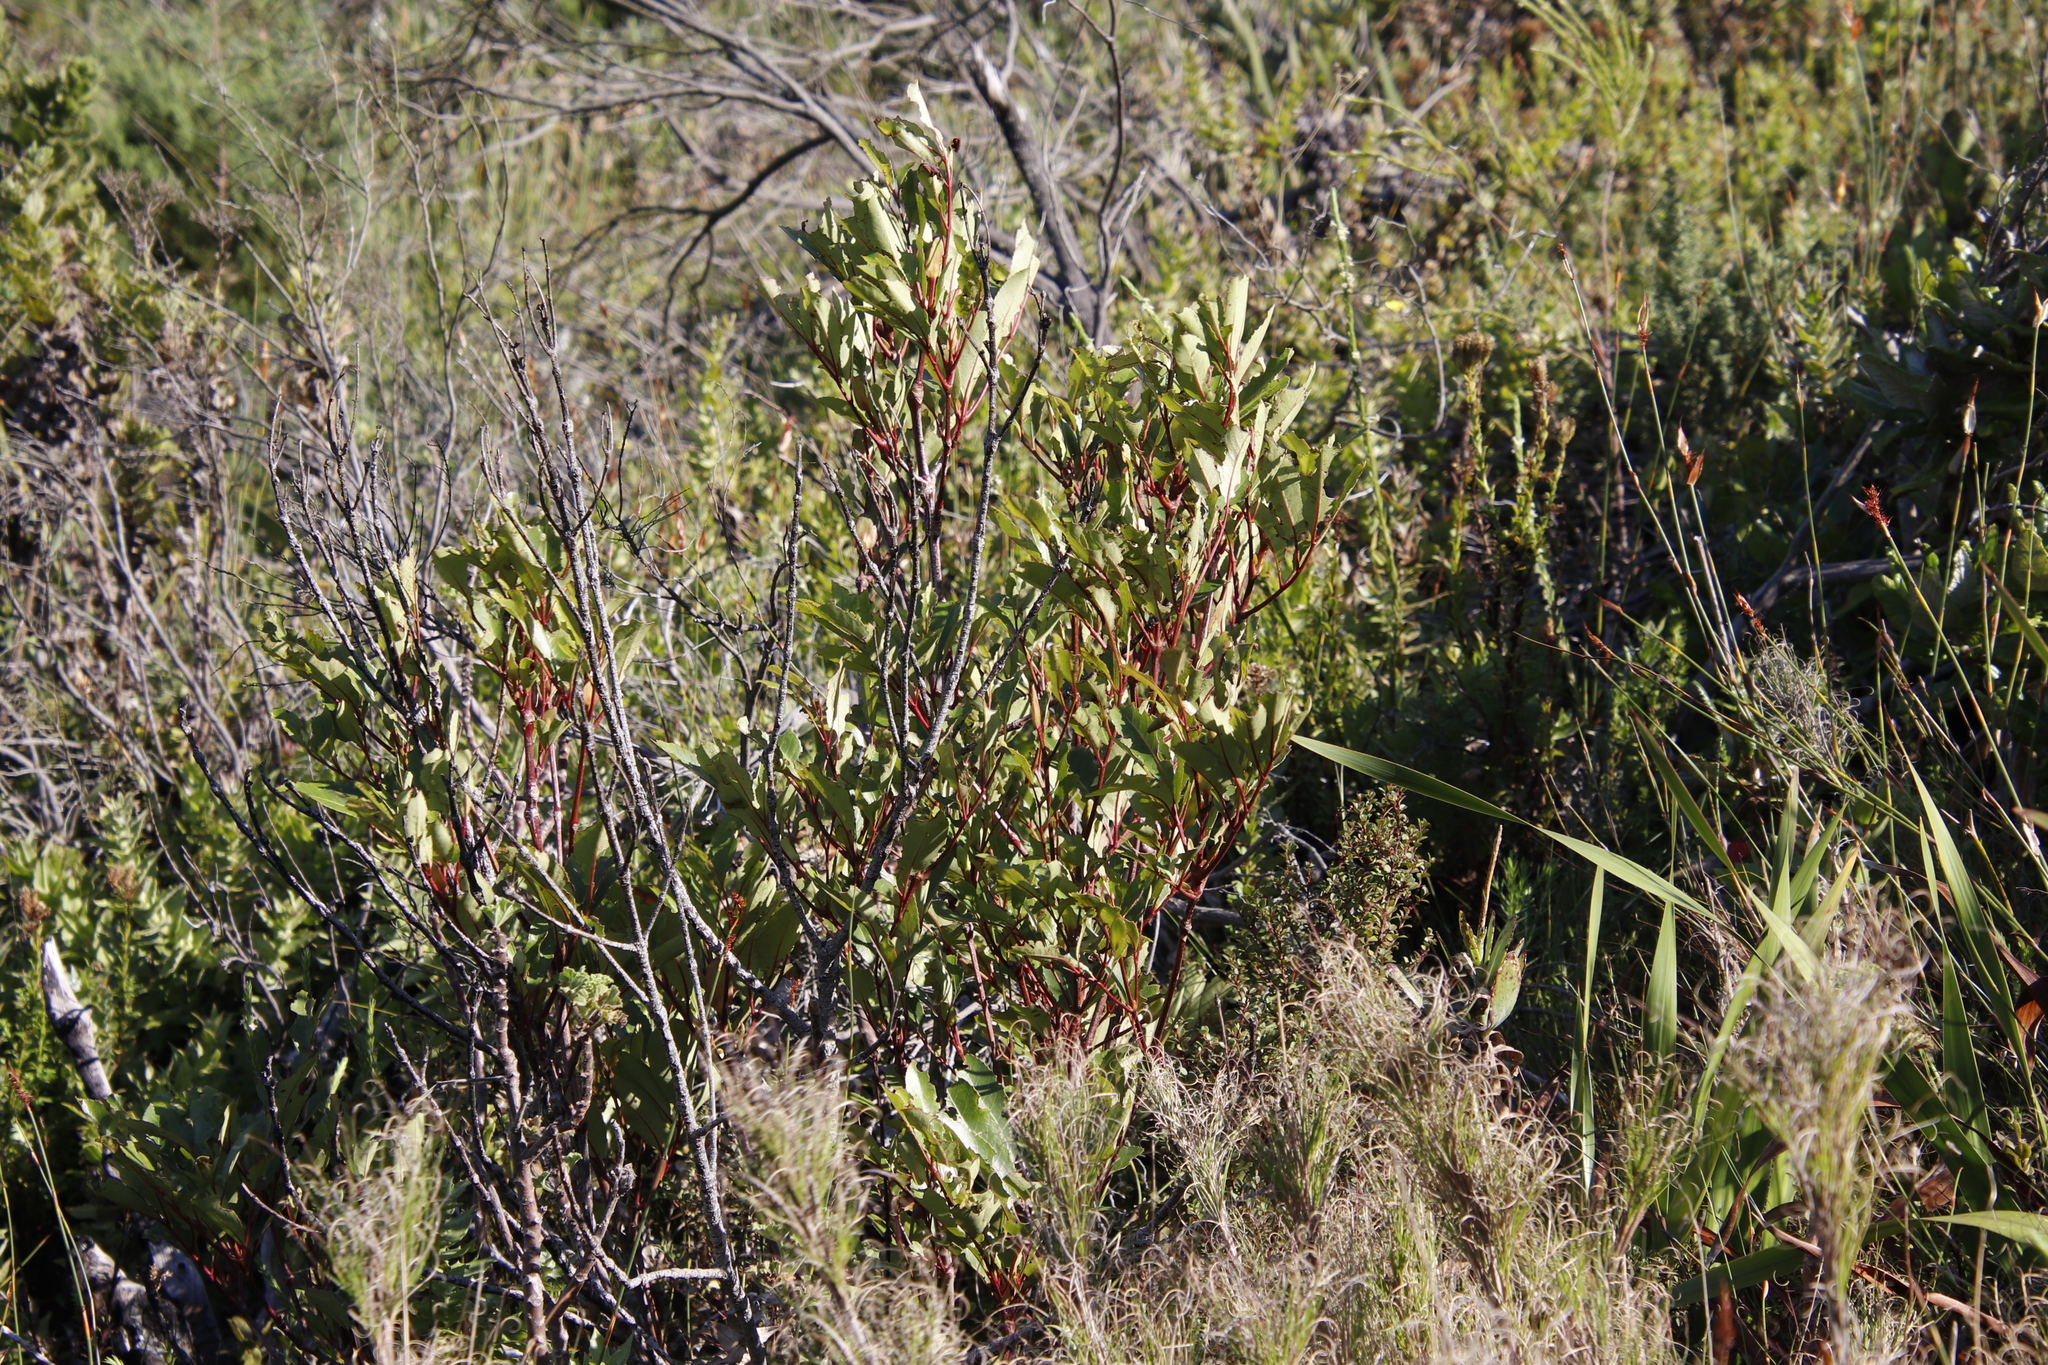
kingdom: Plantae
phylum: Tracheophyta
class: Magnoliopsida
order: Oxalidales
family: Cunoniaceae
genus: Cunonia
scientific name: Cunonia capensis
